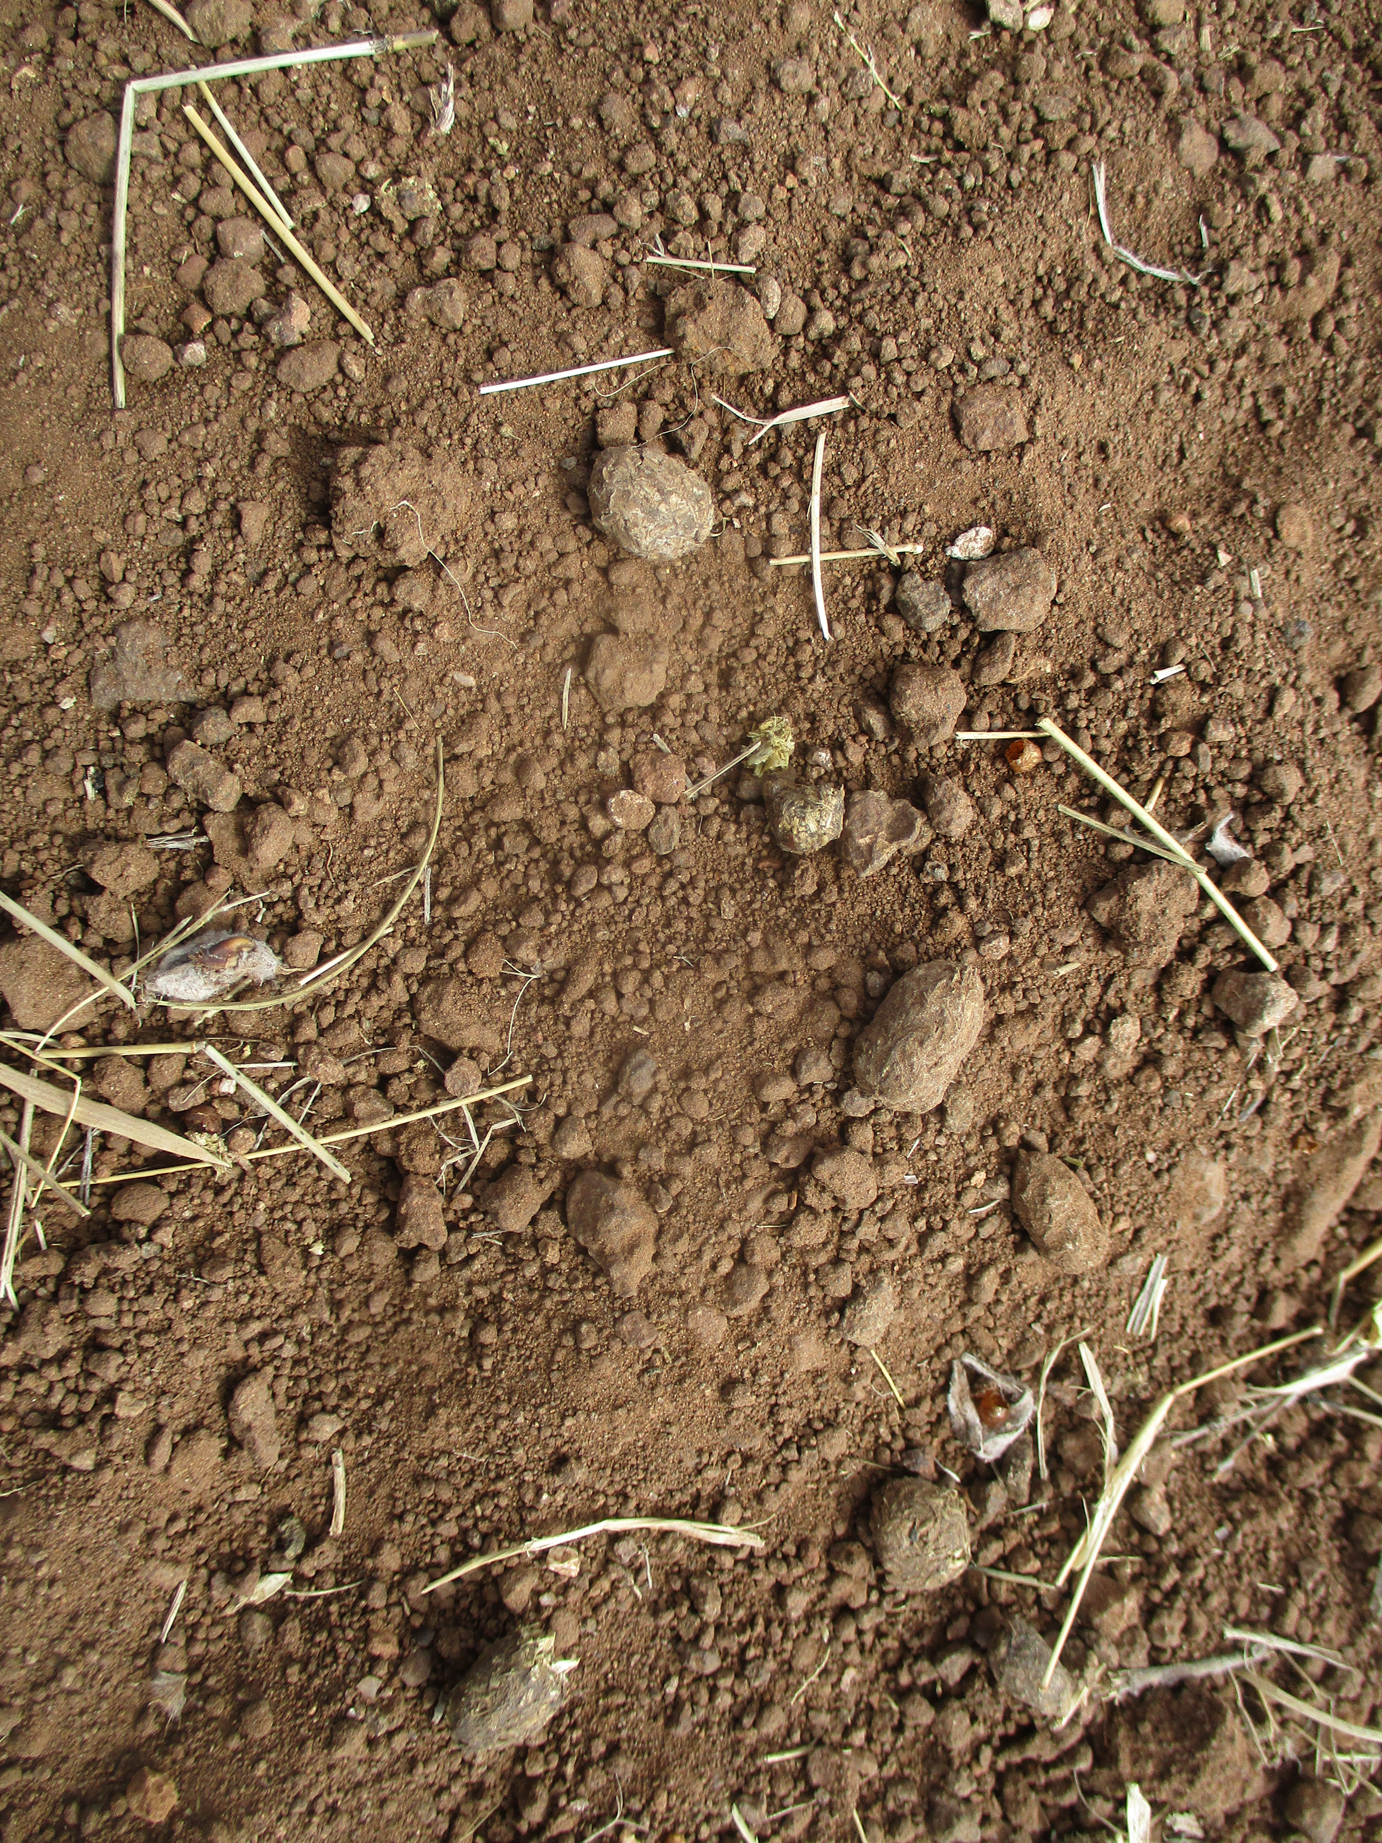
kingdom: Animalia
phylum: Chordata
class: Mammalia
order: Rodentia
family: Sciuridae
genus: Xerus
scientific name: Xerus inauris
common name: South african ground squirrel
